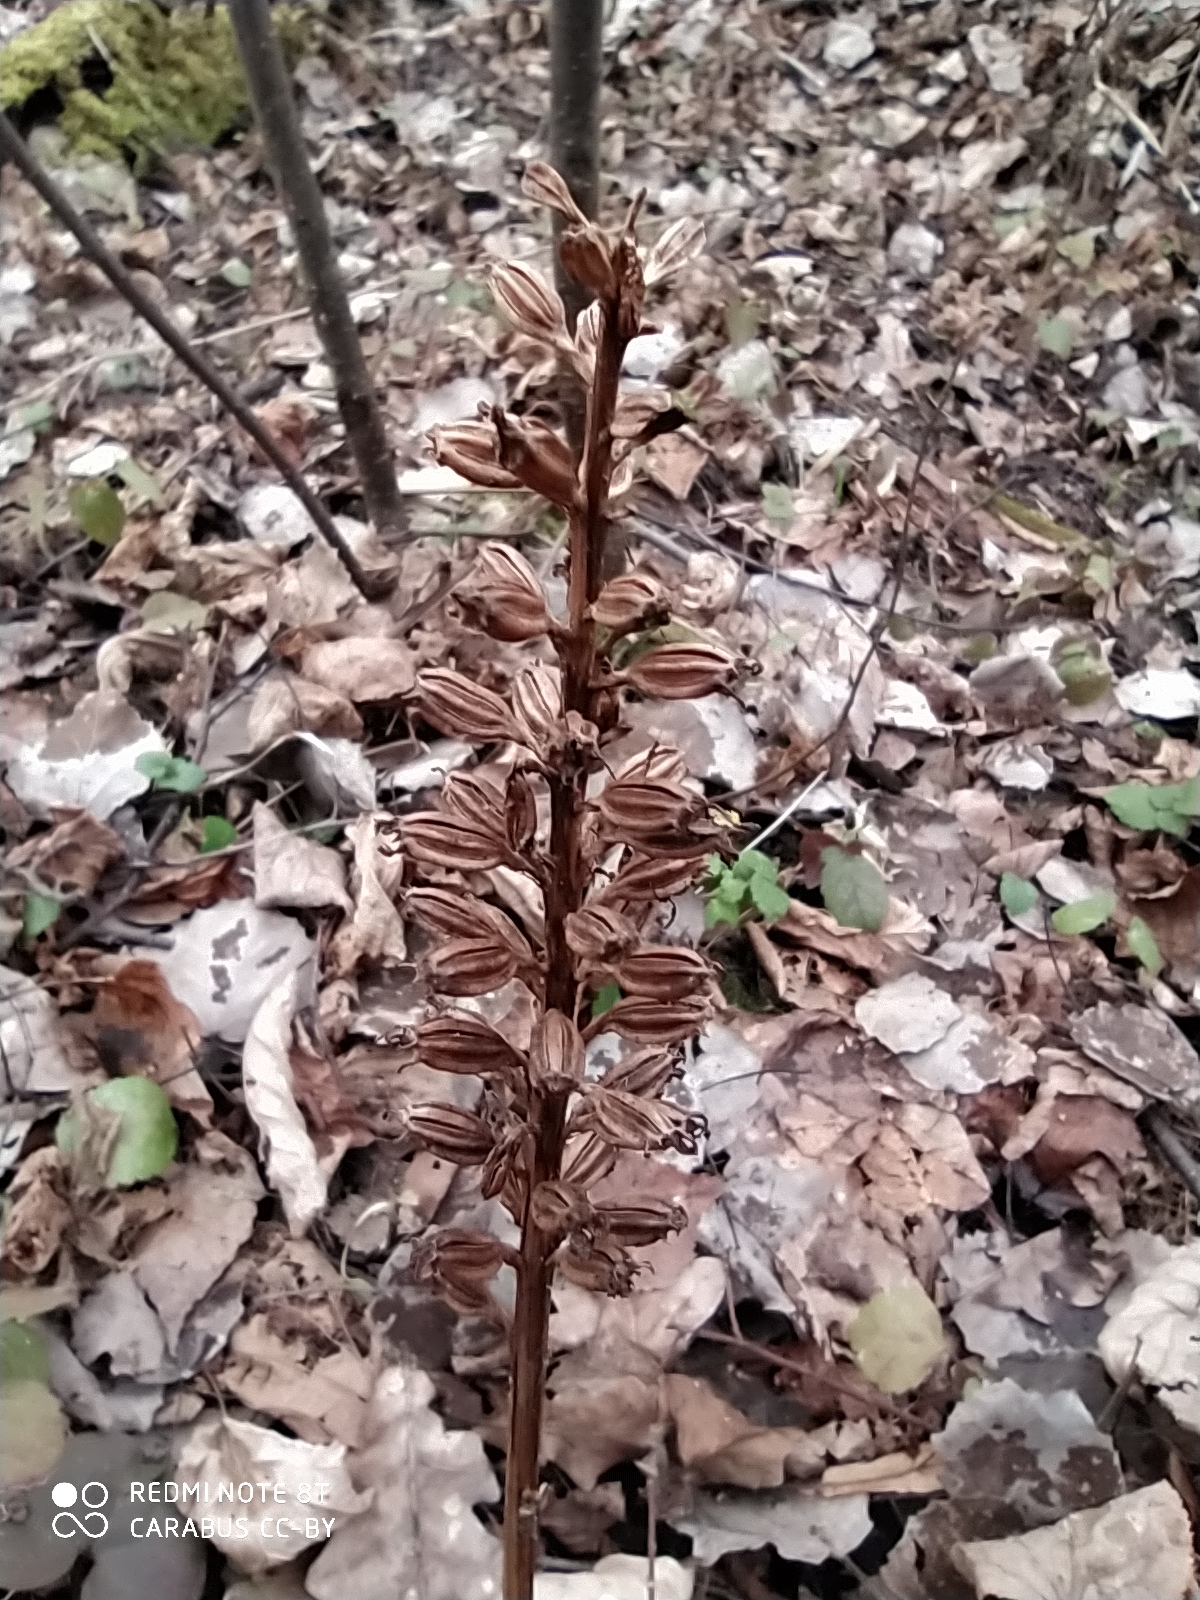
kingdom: Plantae
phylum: Tracheophyta
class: Liliopsida
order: Asparagales
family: Orchidaceae
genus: Neottia
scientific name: Neottia nidus-avis
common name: Bird's-nest orchid
